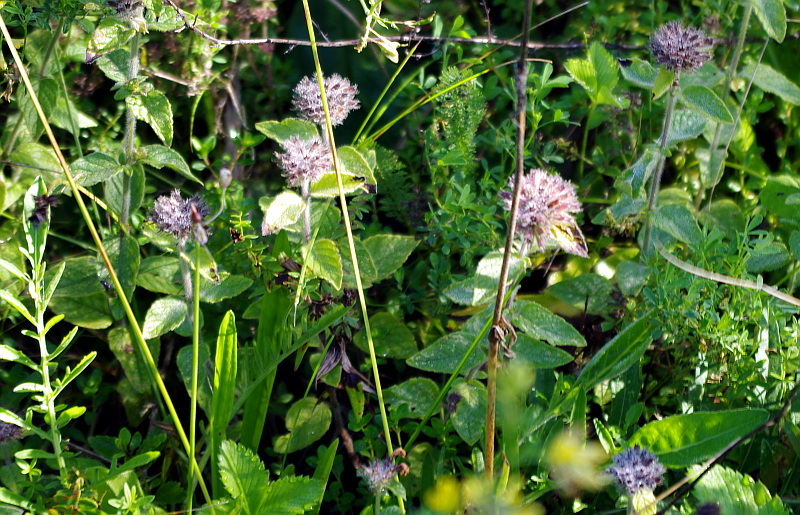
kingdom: Plantae
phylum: Tracheophyta
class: Magnoliopsida
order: Lamiales
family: Lamiaceae
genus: Clinopodium
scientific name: Clinopodium vulgare
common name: Wild basil
